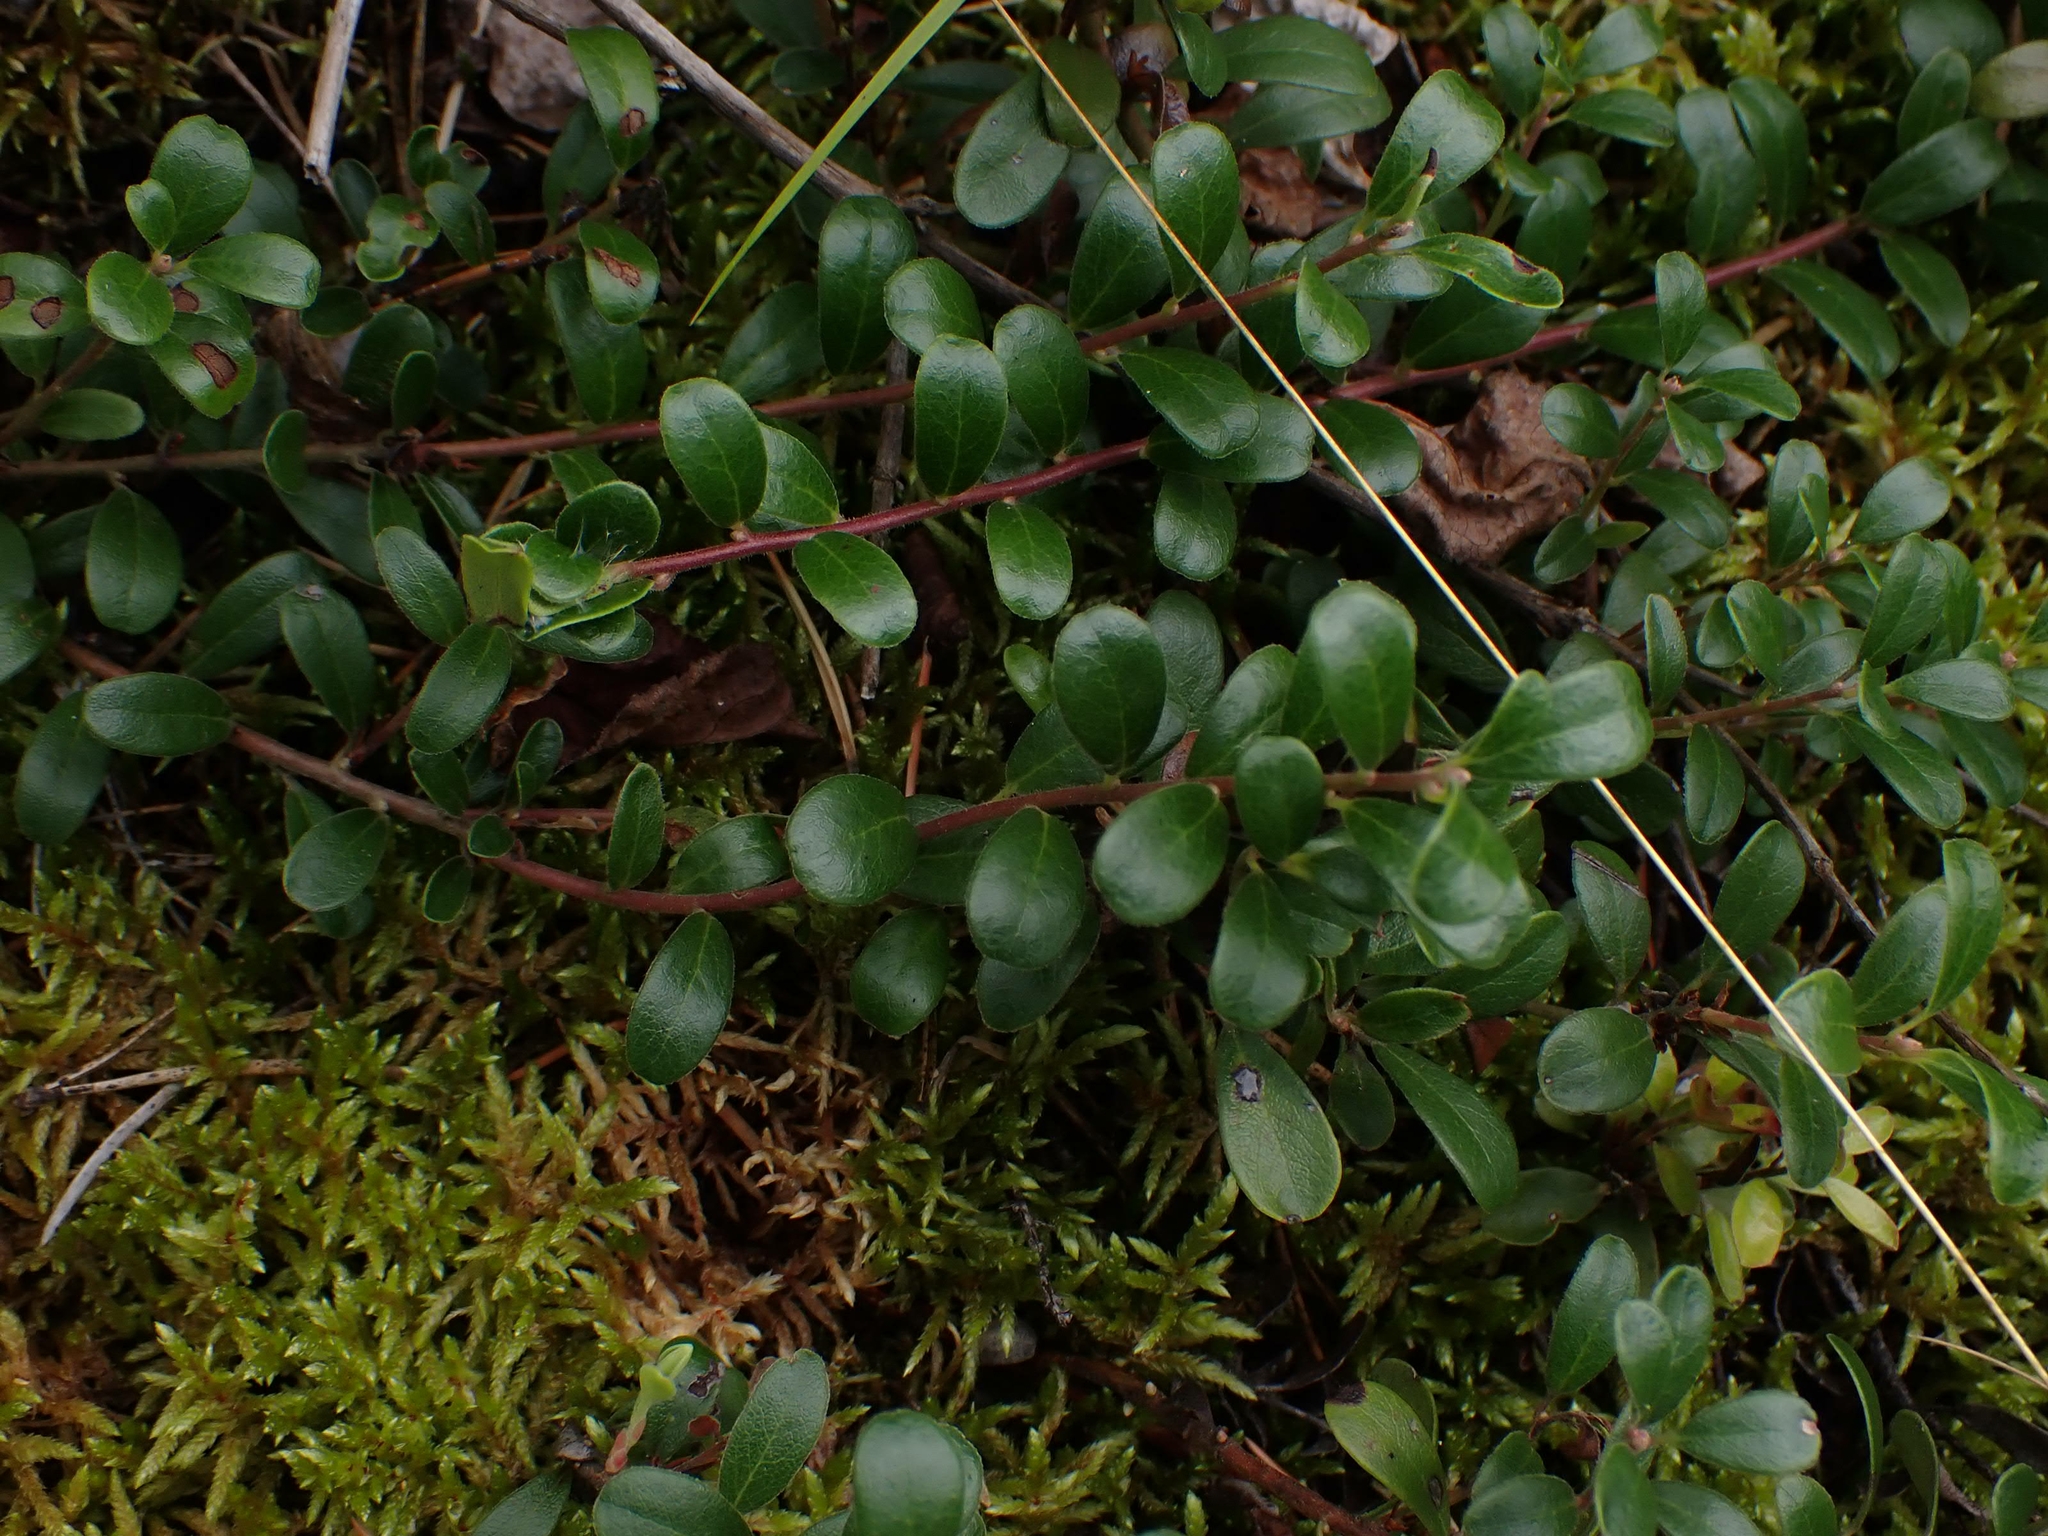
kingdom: Plantae
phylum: Tracheophyta
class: Magnoliopsida
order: Ericales
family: Ericaceae
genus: Arctostaphylos
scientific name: Arctostaphylos uva-ursi
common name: Bearberry
